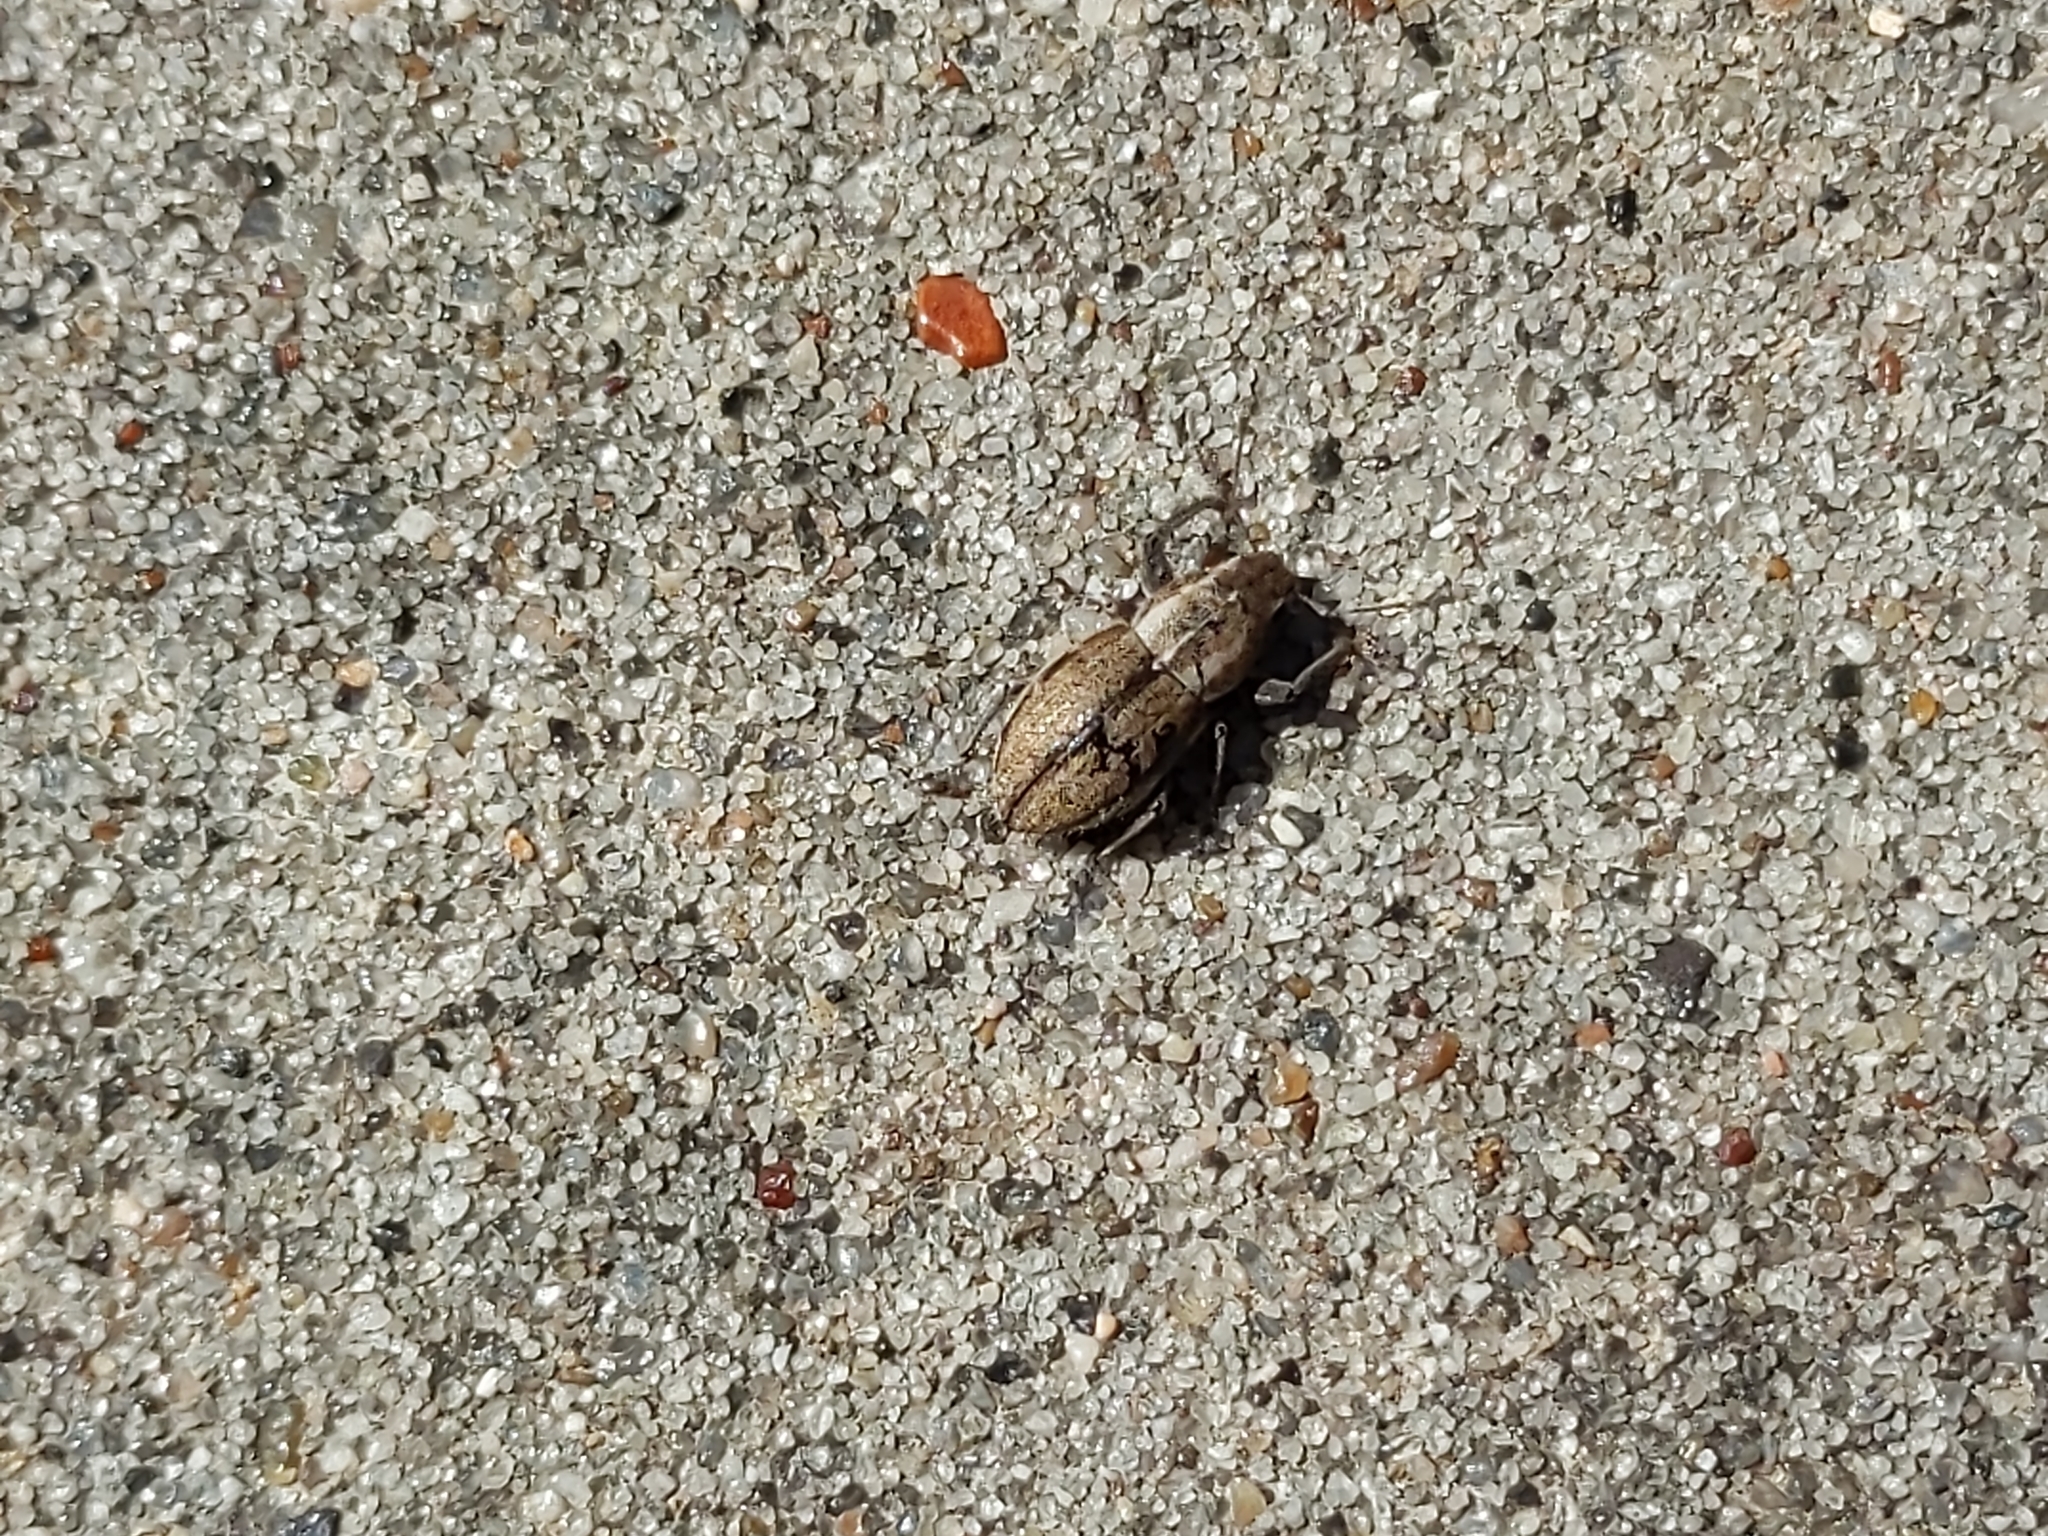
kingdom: Animalia
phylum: Arthropoda
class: Insecta
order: Coleoptera
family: Curculionidae
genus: Naupactus
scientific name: Naupactus peregrinus
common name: Whitefringed beetle
